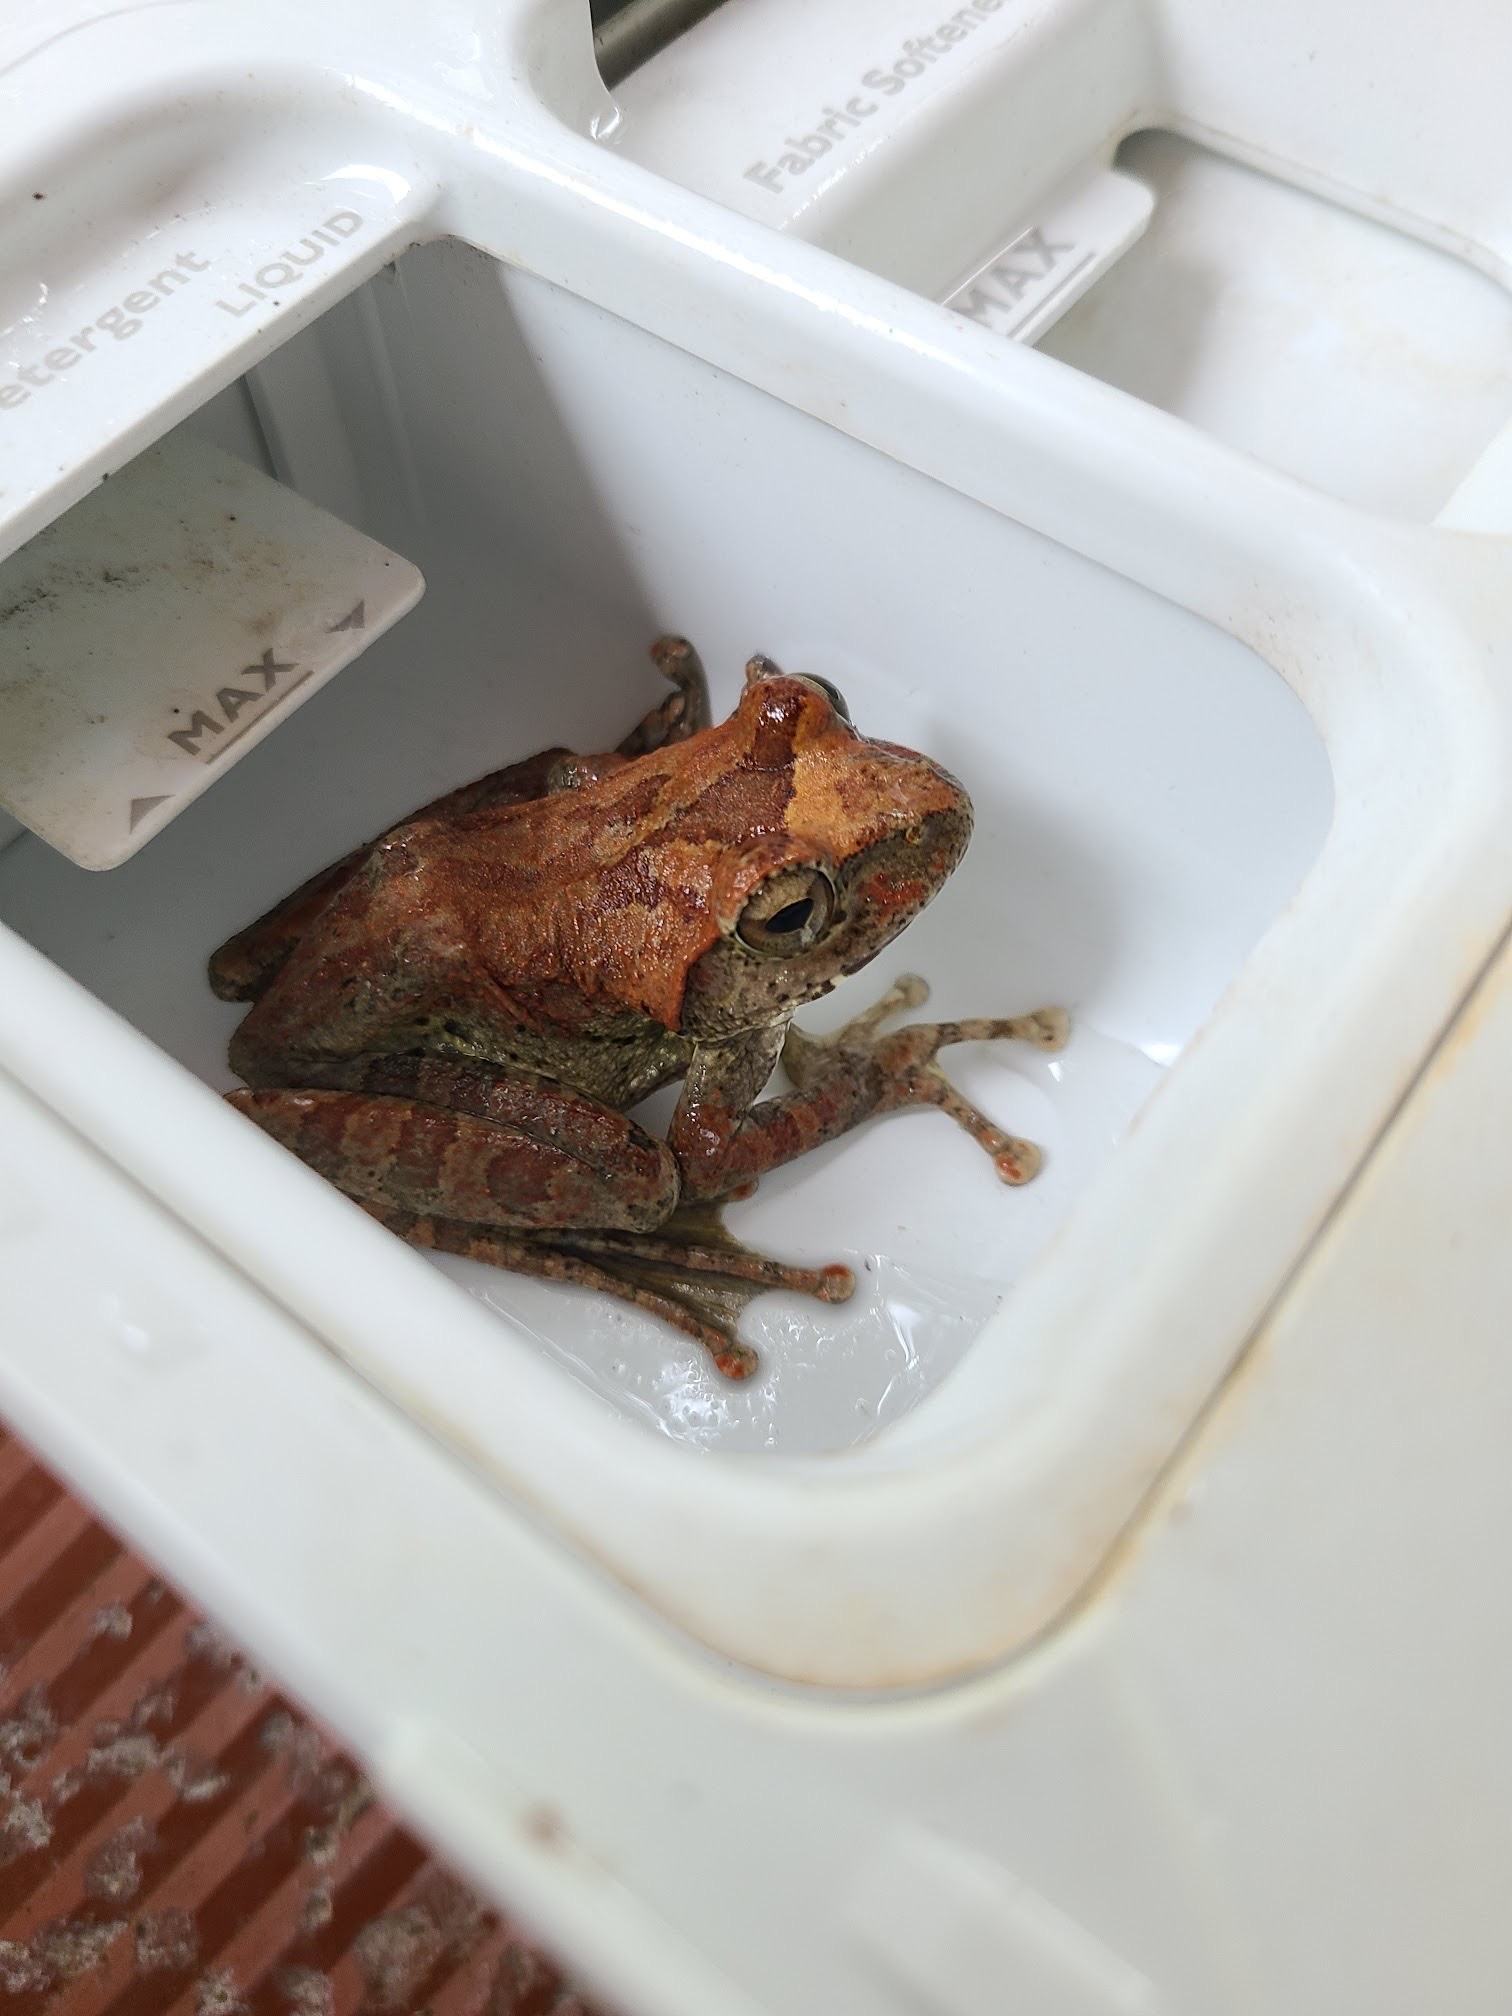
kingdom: Animalia
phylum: Chordata
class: Amphibia
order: Anura
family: Rhacophoridae
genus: Buergeria
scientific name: Buergeria robusta
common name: Brown treefrog
